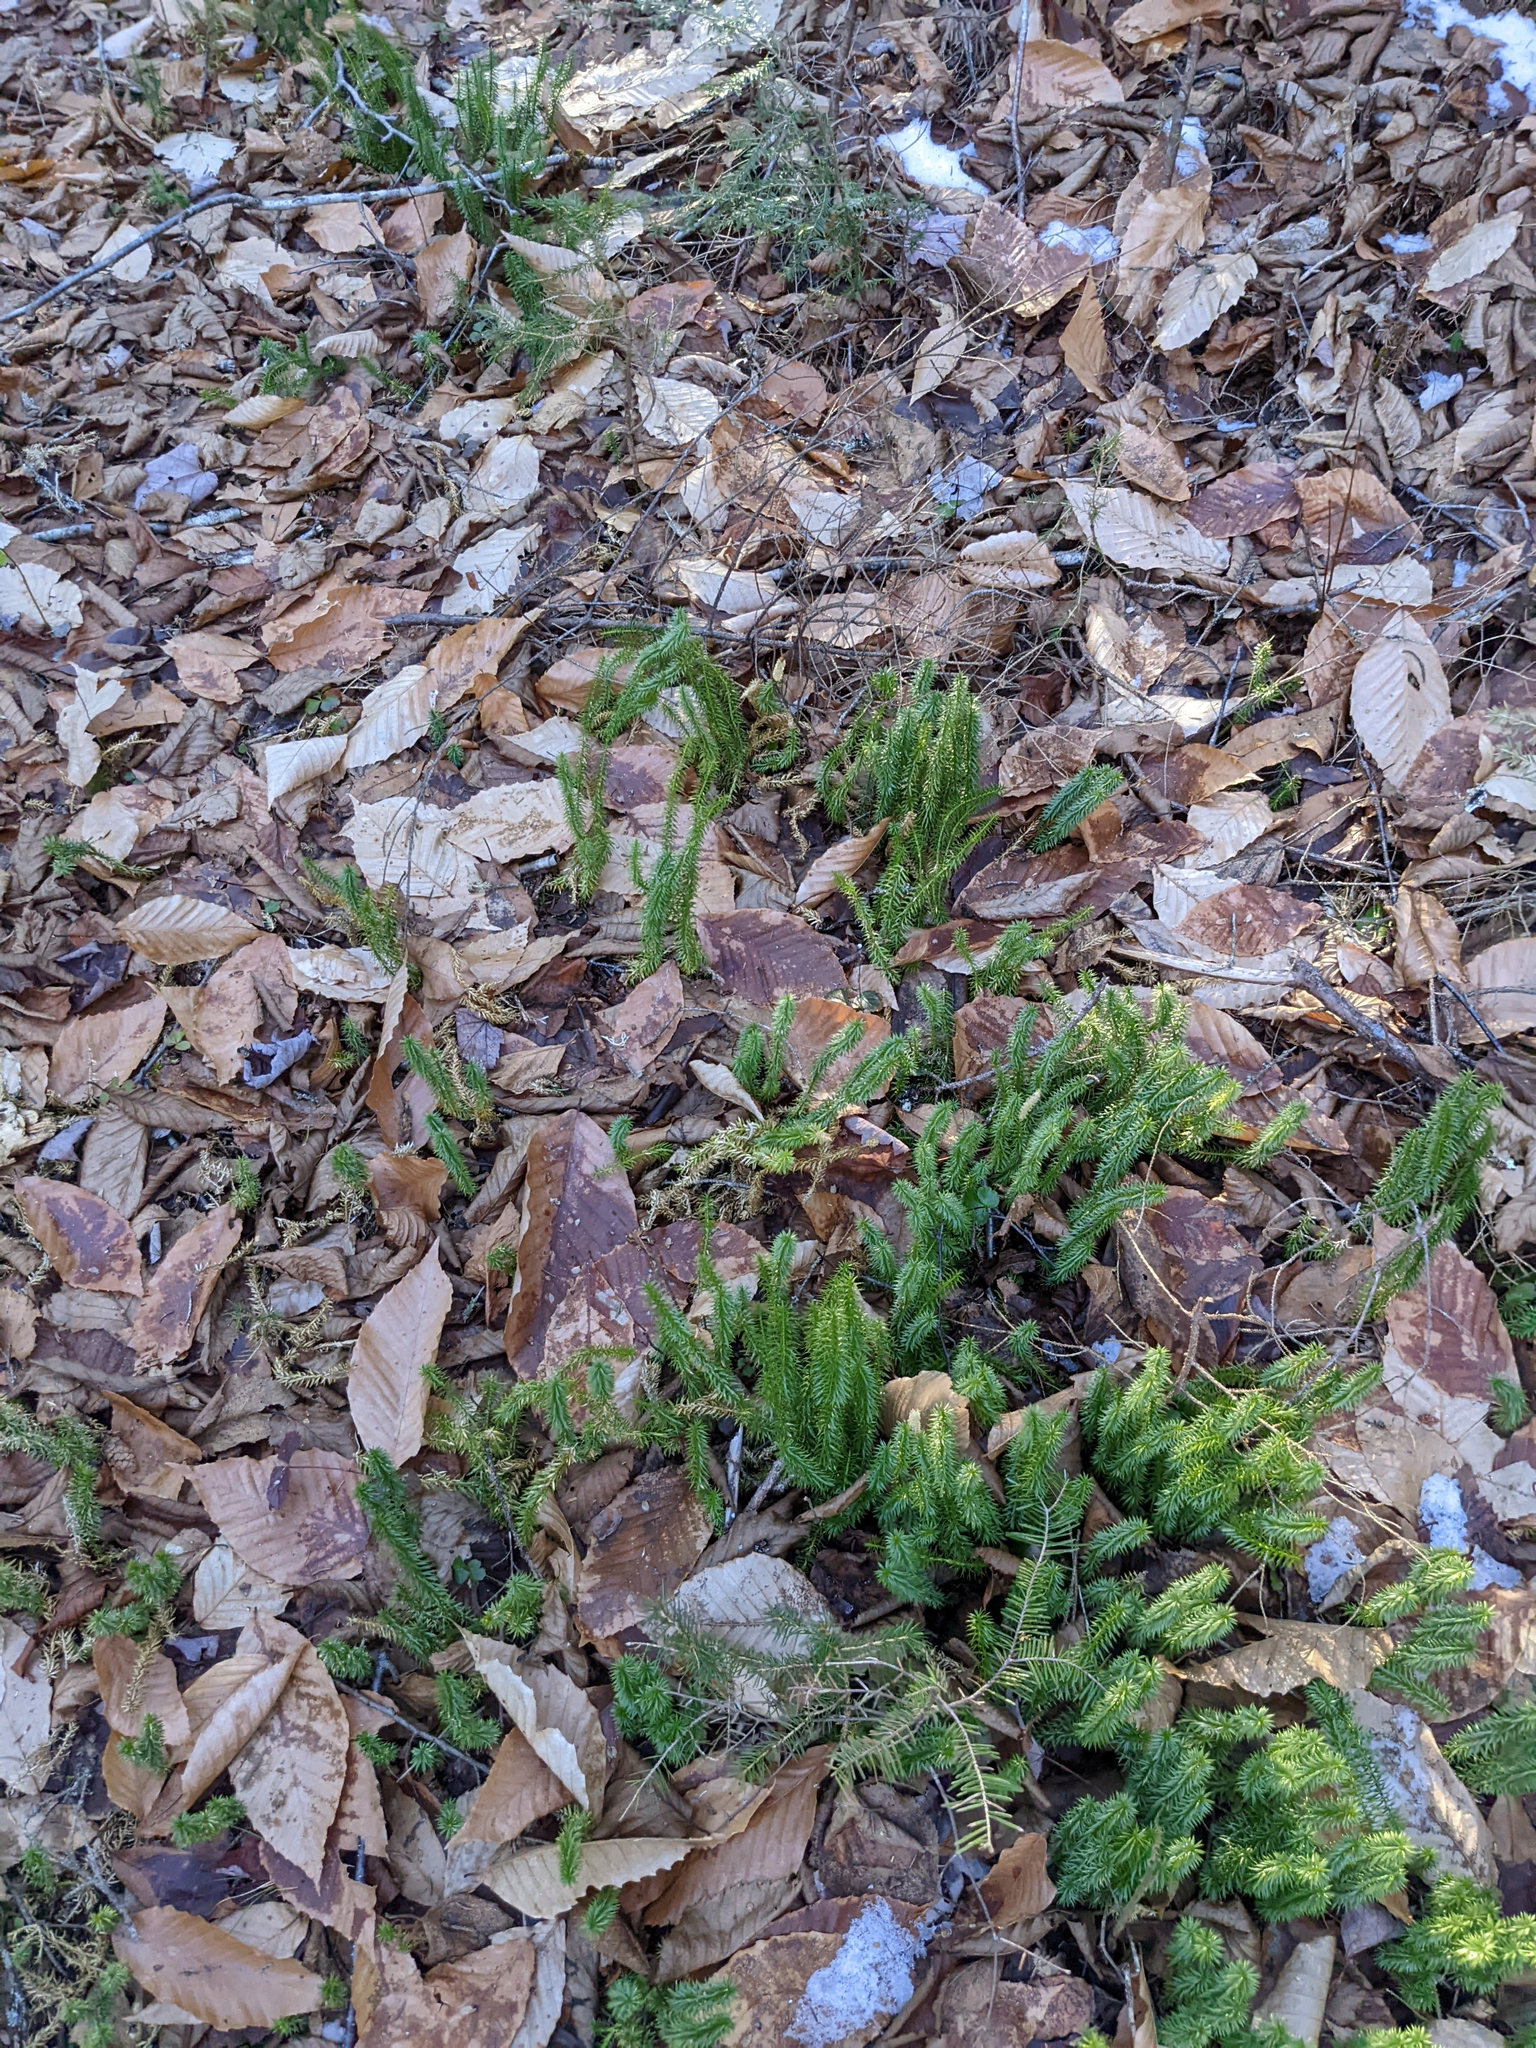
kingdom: Plantae
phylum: Tracheophyta
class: Lycopodiopsida
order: Lycopodiales
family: Lycopodiaceae
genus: Spinulum
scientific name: Spinulum annotinum
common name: Interrupted club-moss
